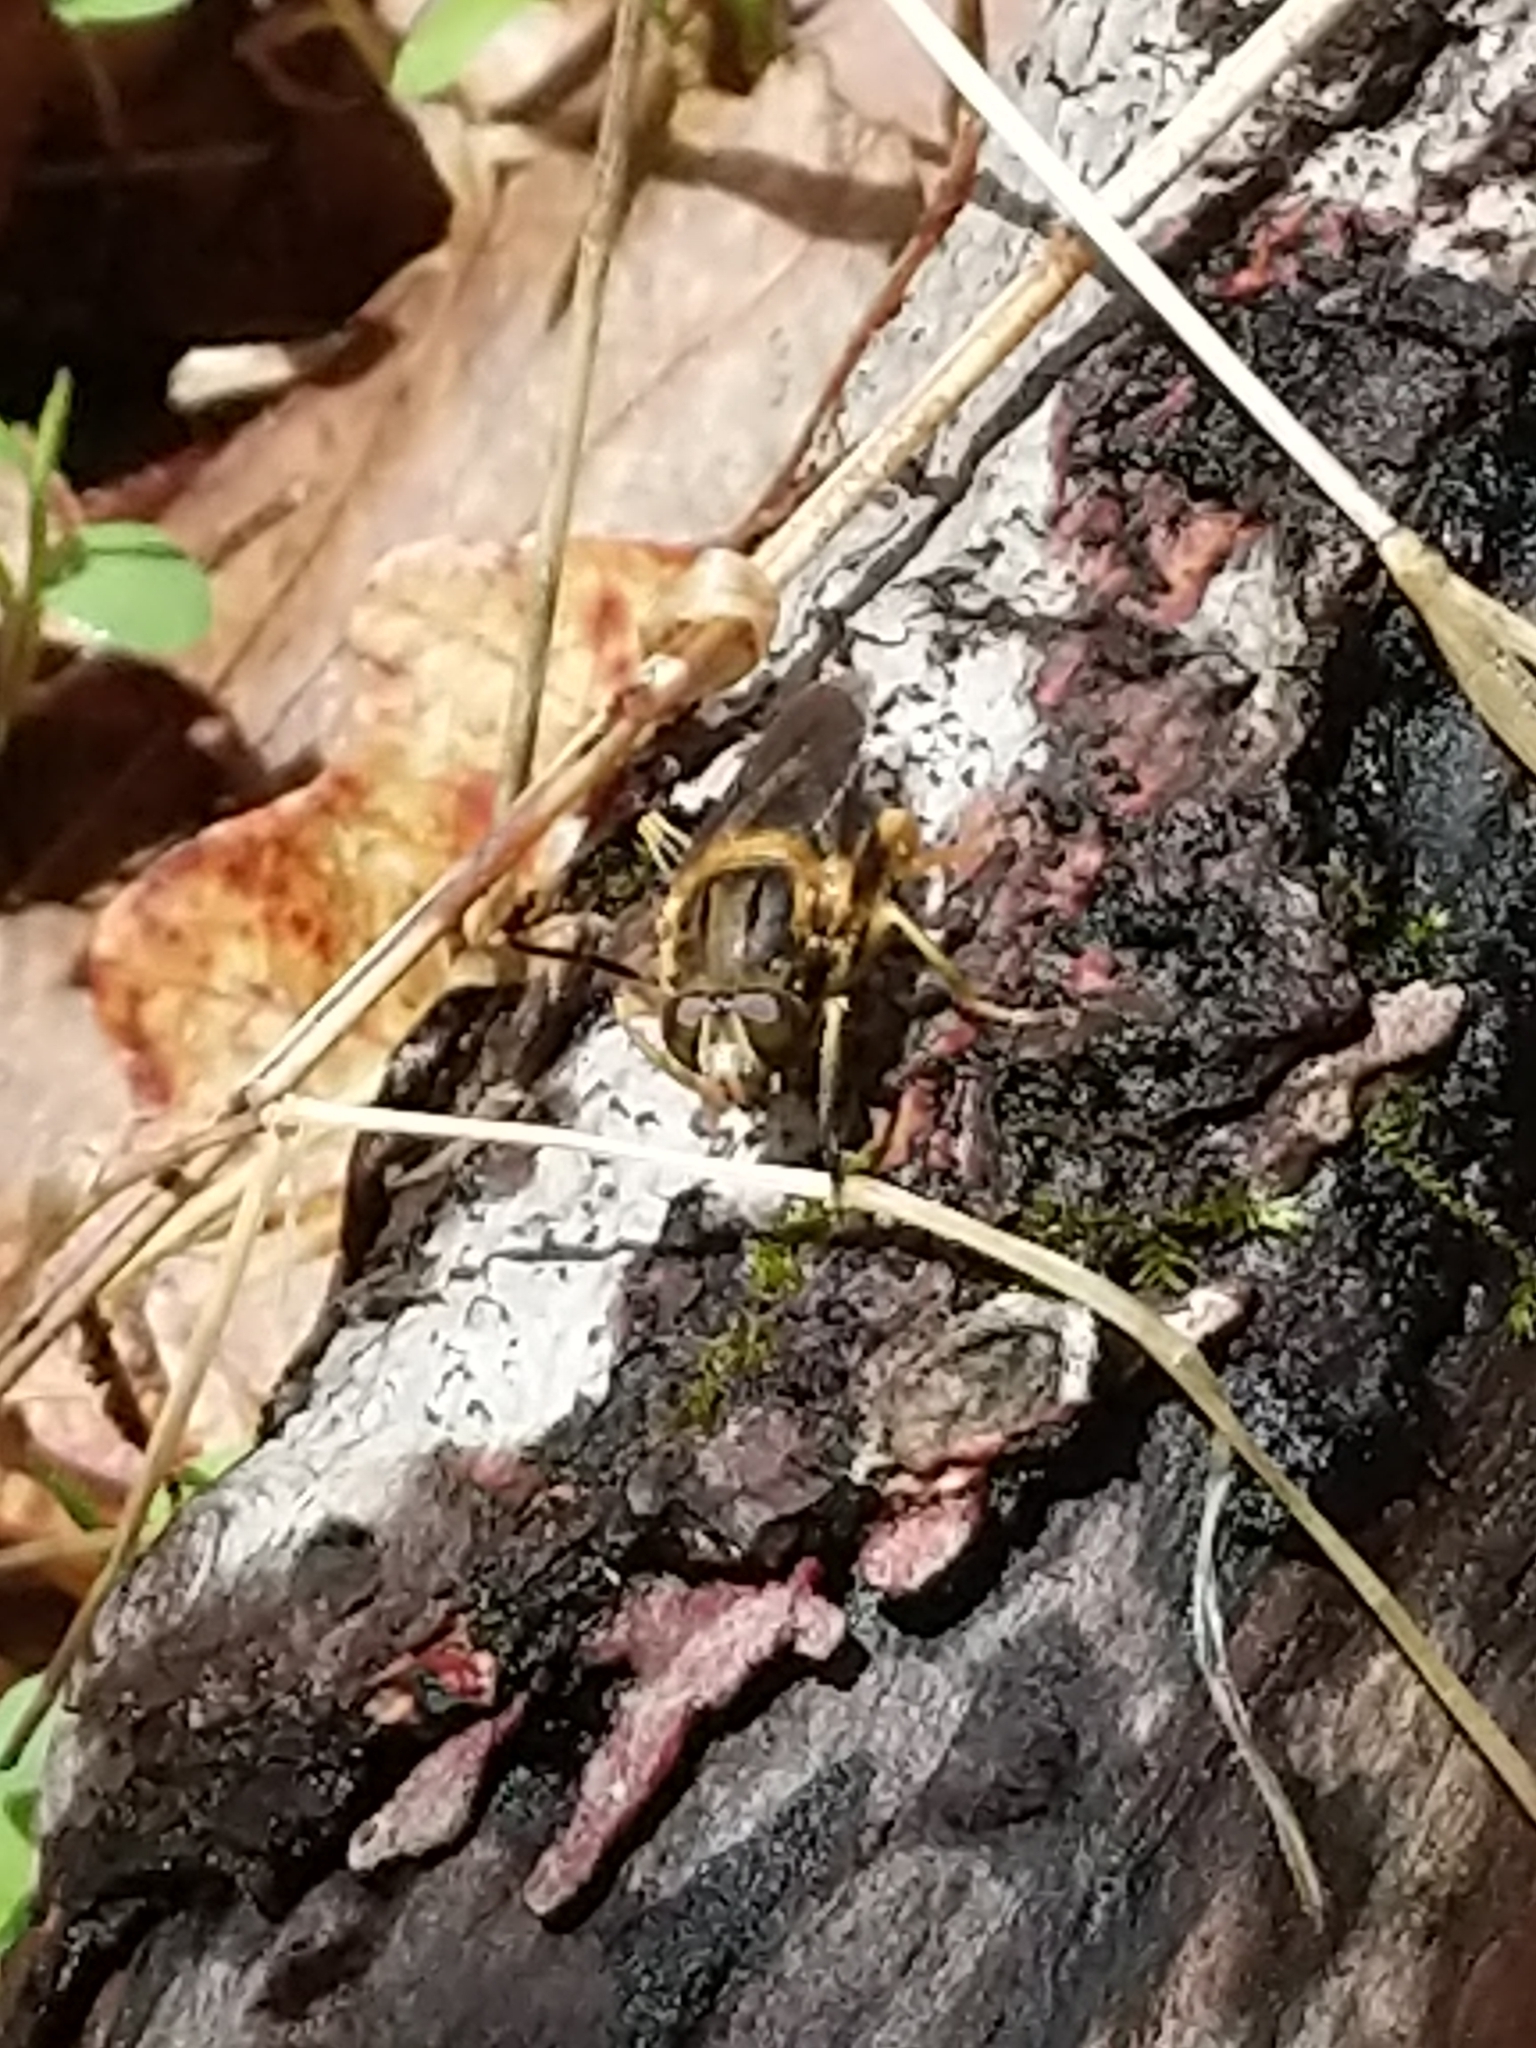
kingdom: Animalia
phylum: Arthropoda
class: Insecta
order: Diptera
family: Syrphidae
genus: Teuchocnemis
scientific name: Teuchocnemis lituratus
